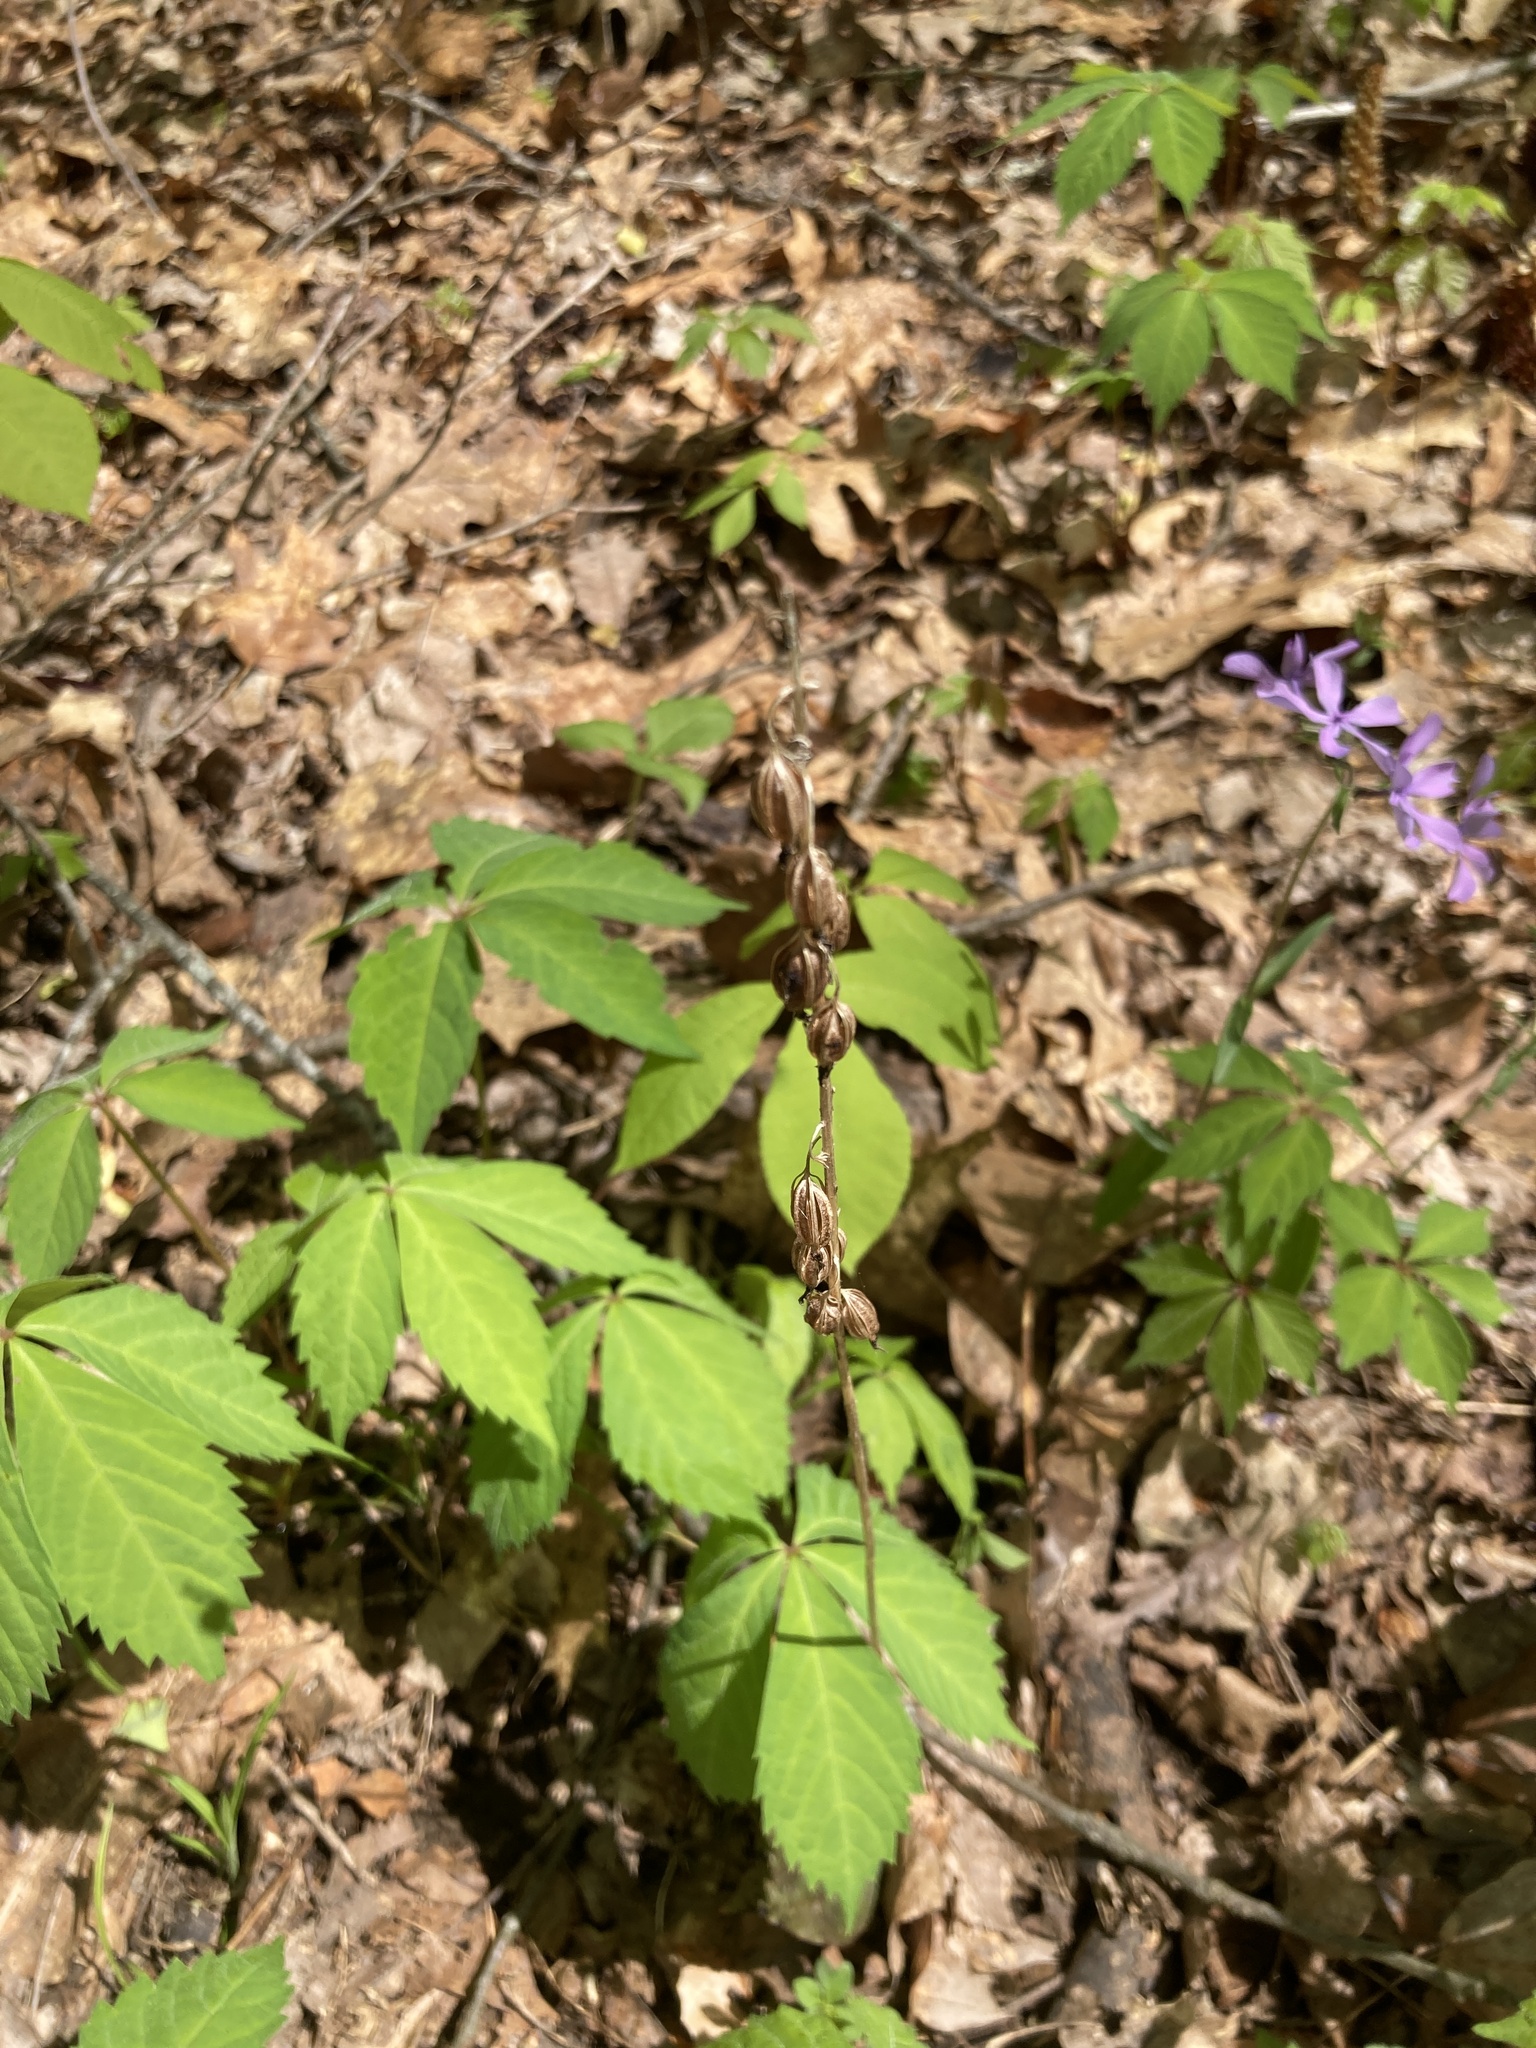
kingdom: Plantae
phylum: Tracheophyta
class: Liliopsida
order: Asparagales
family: Orchidaceae
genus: Tipularia
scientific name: Tipularia discolor
